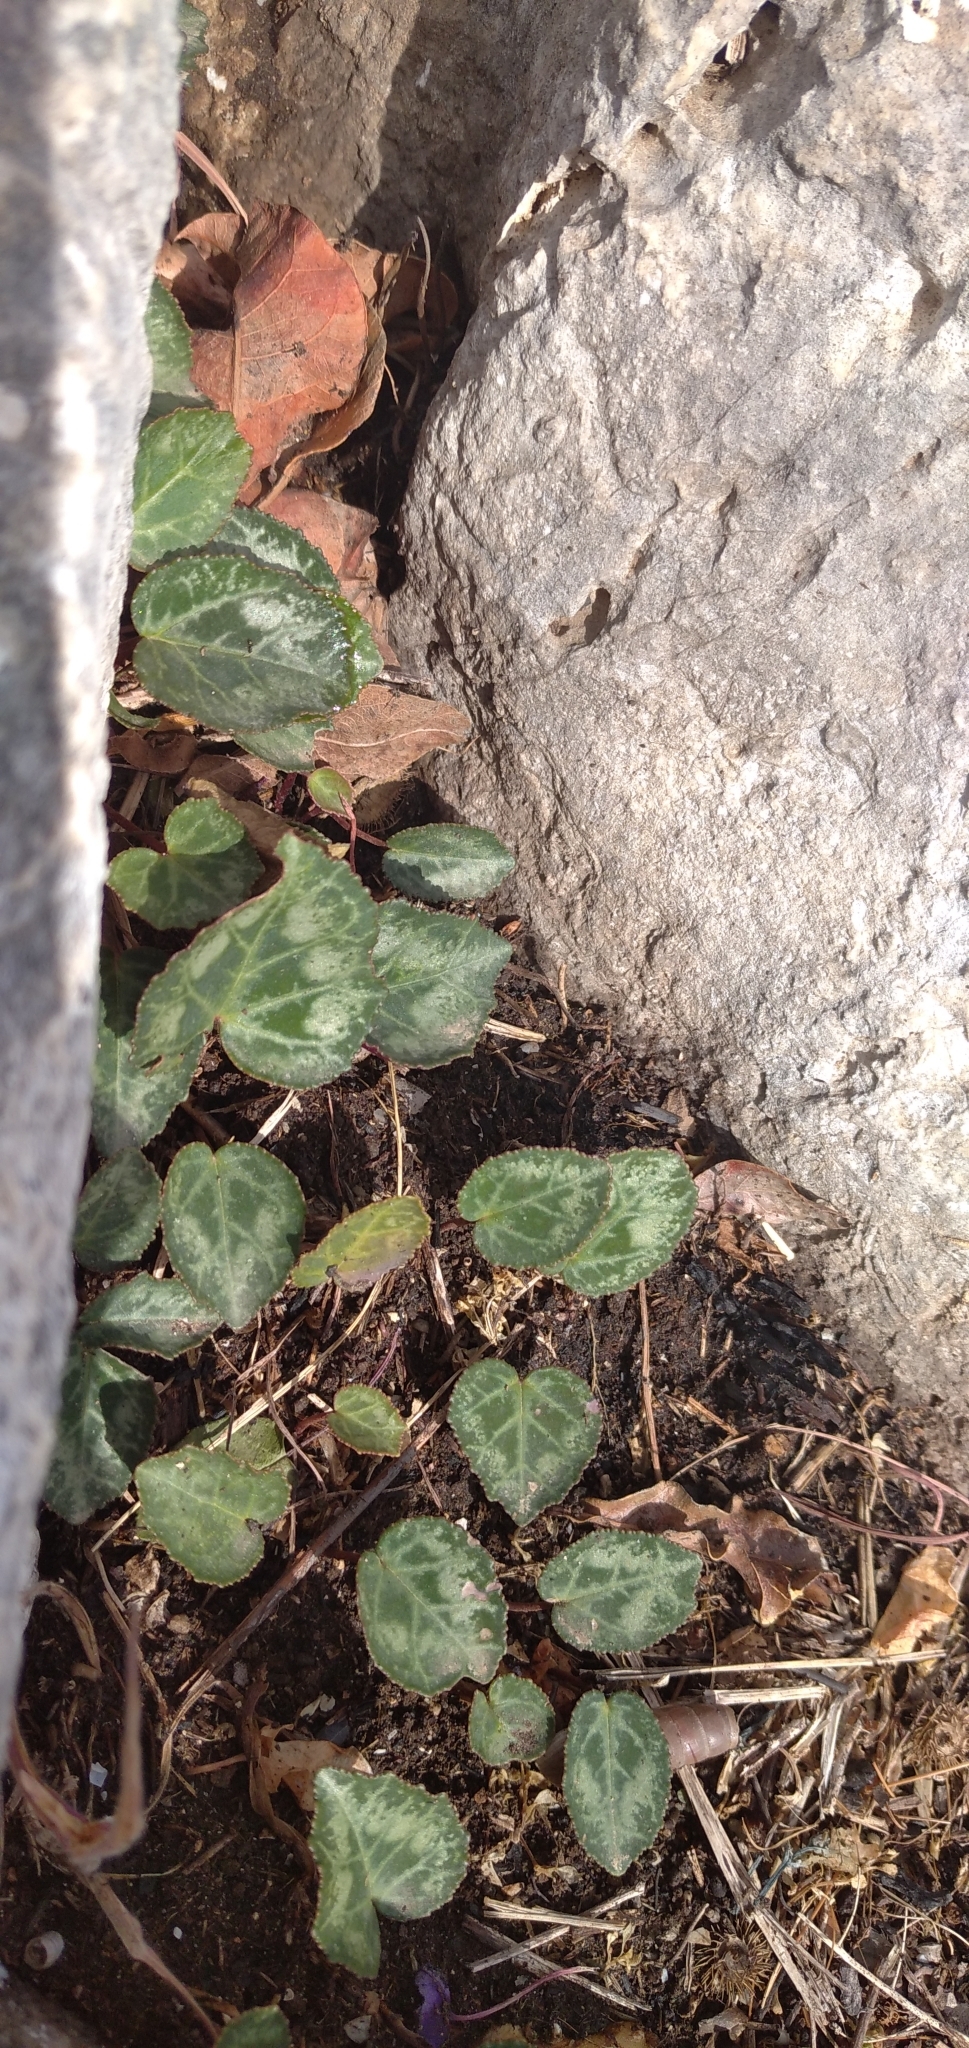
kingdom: Plantae
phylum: Tracheophyta
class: Magnoliopsida
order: Ericales
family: Primulaceae
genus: Cyclamen
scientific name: Cyclamen graecum
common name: Greek cyclamen
